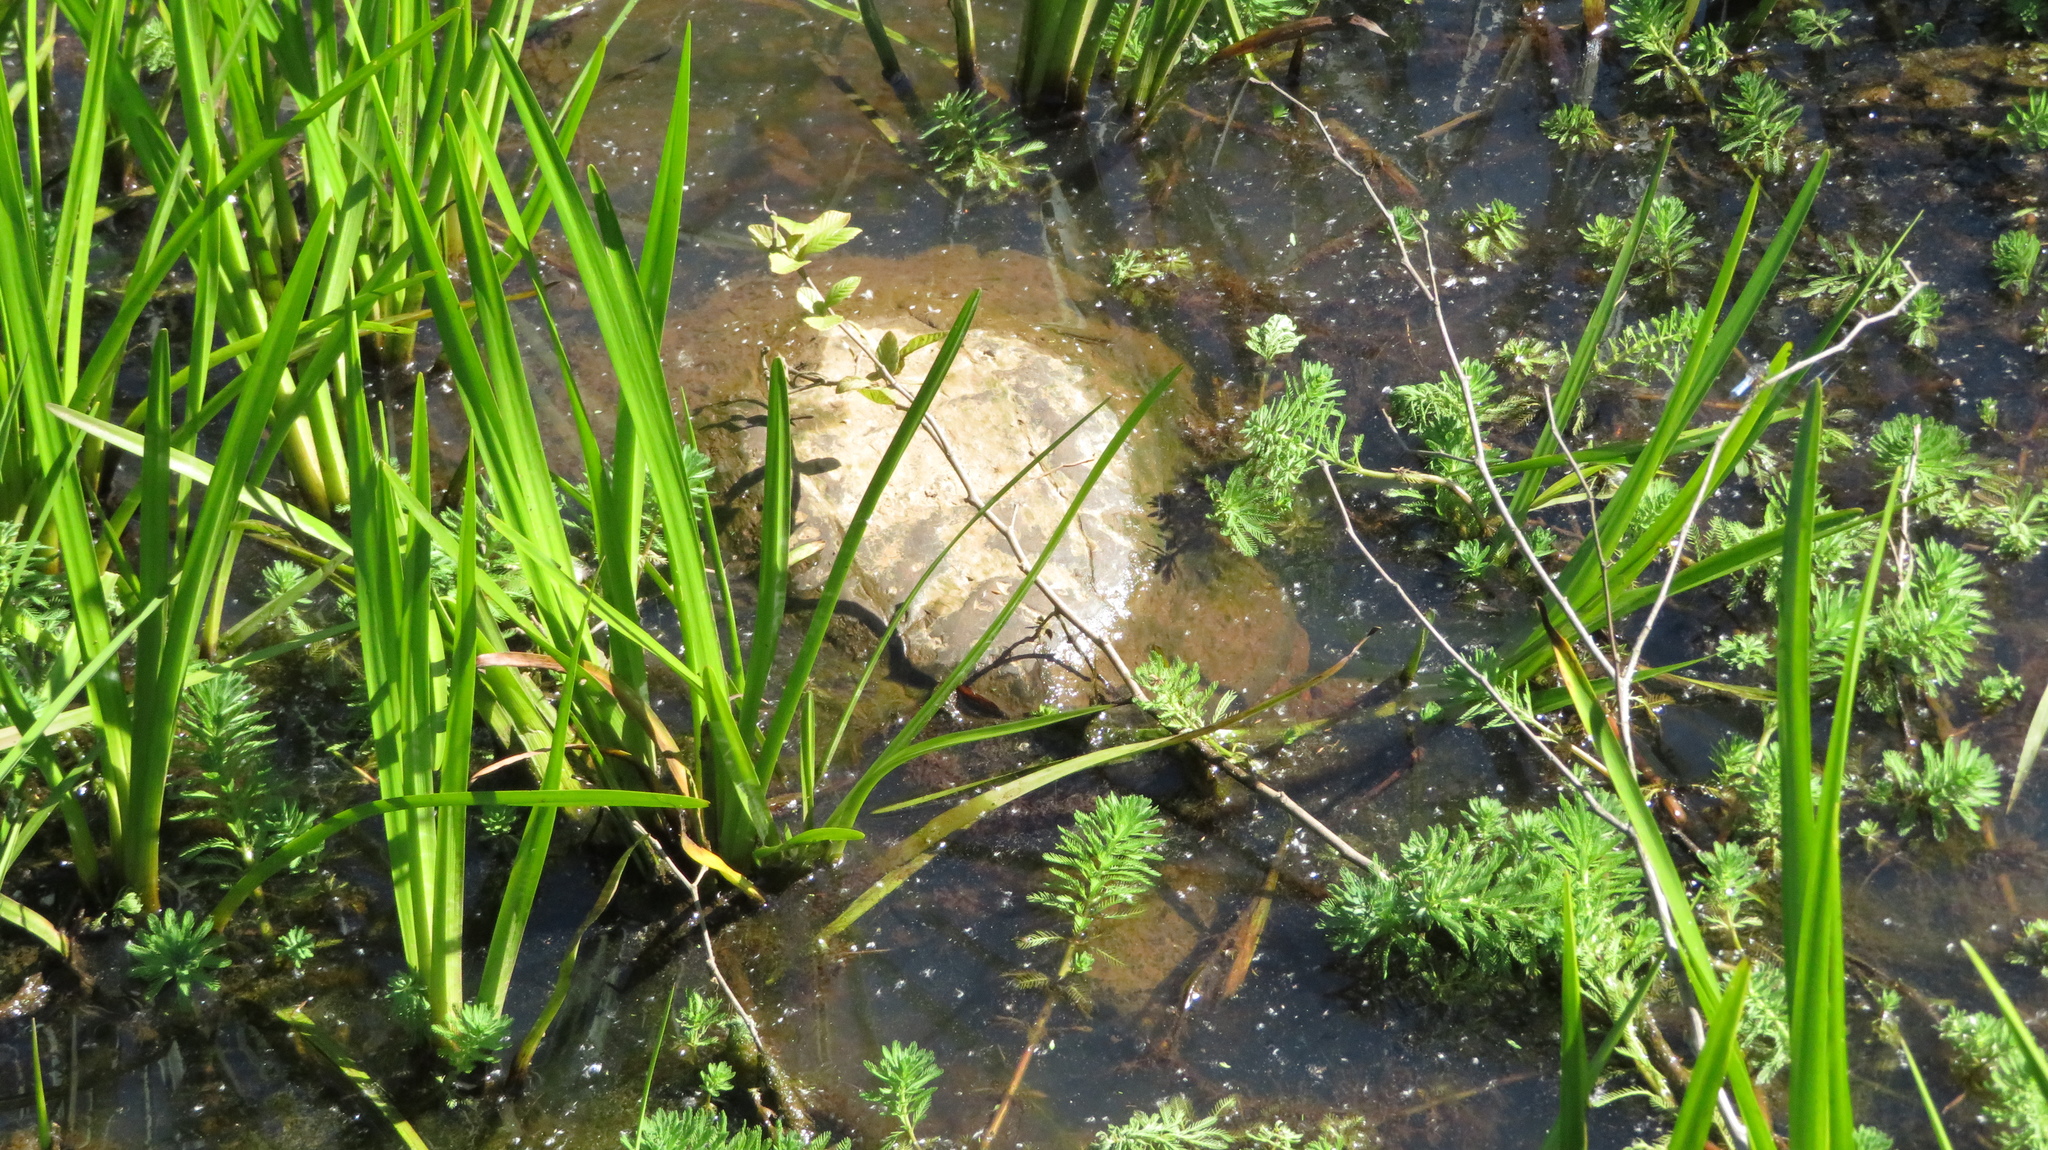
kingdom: Animalia
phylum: Chordata
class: Testudines
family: Chelydridae
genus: Chelydra
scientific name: Chelydra serpentina
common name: Common snapping turtle
